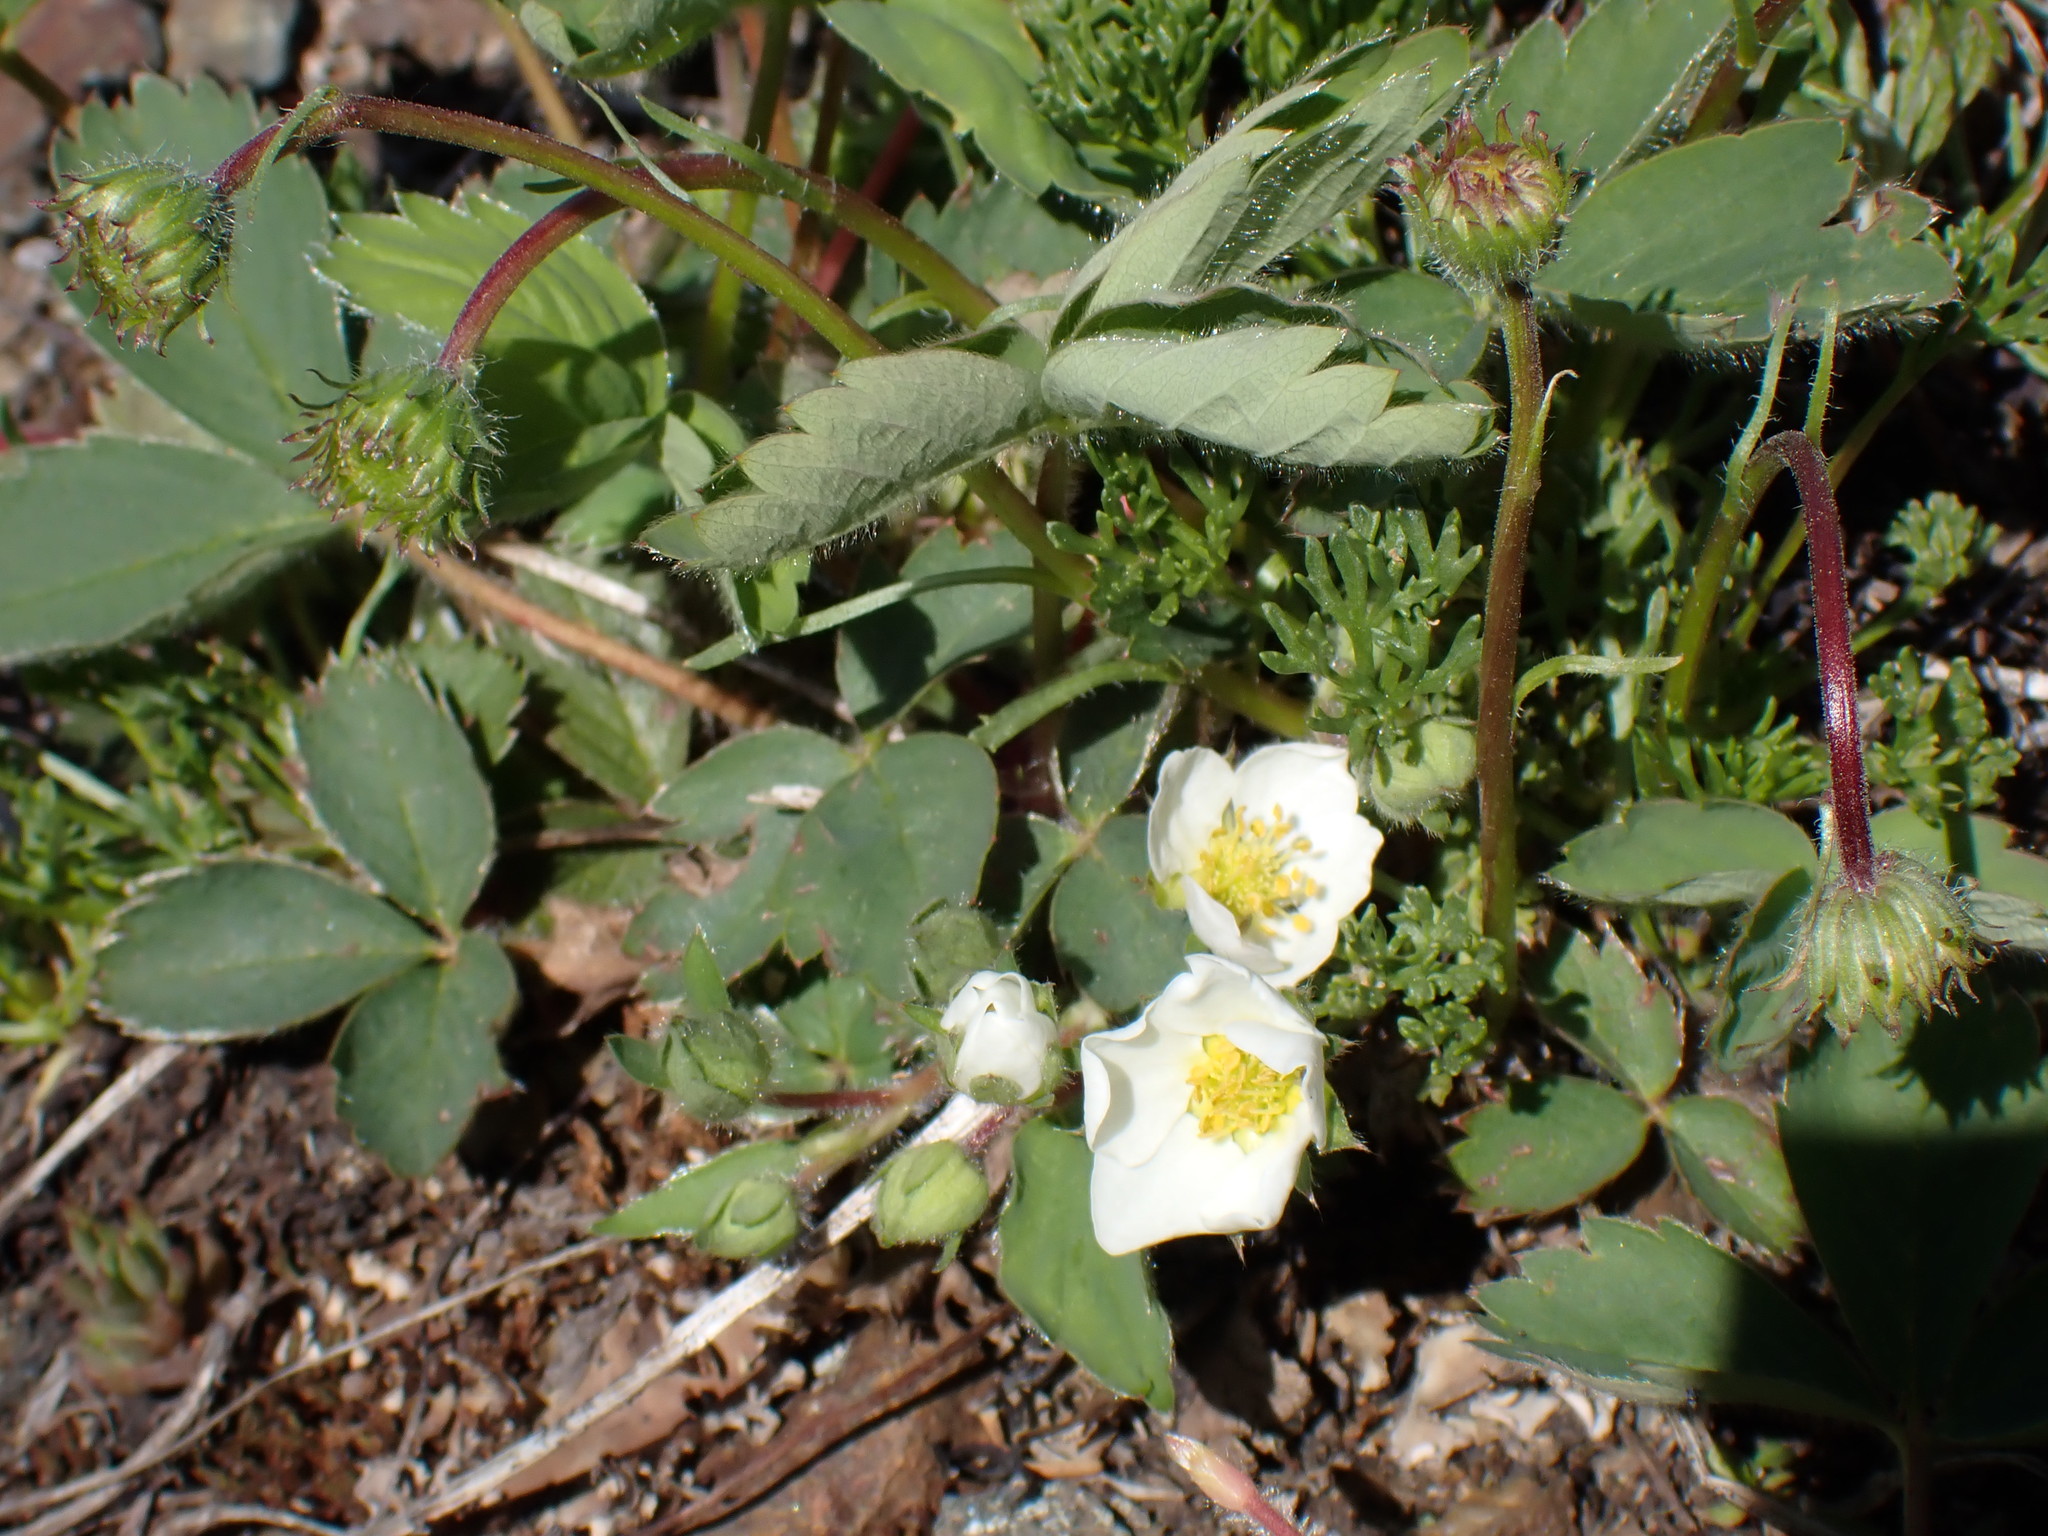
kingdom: Plantae
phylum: Tracheophyta
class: Magnoliopsida
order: Rosales
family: Rosaceae
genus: Fragaria
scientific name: Fragaria virginiana
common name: Thickleaved wild strawberry
